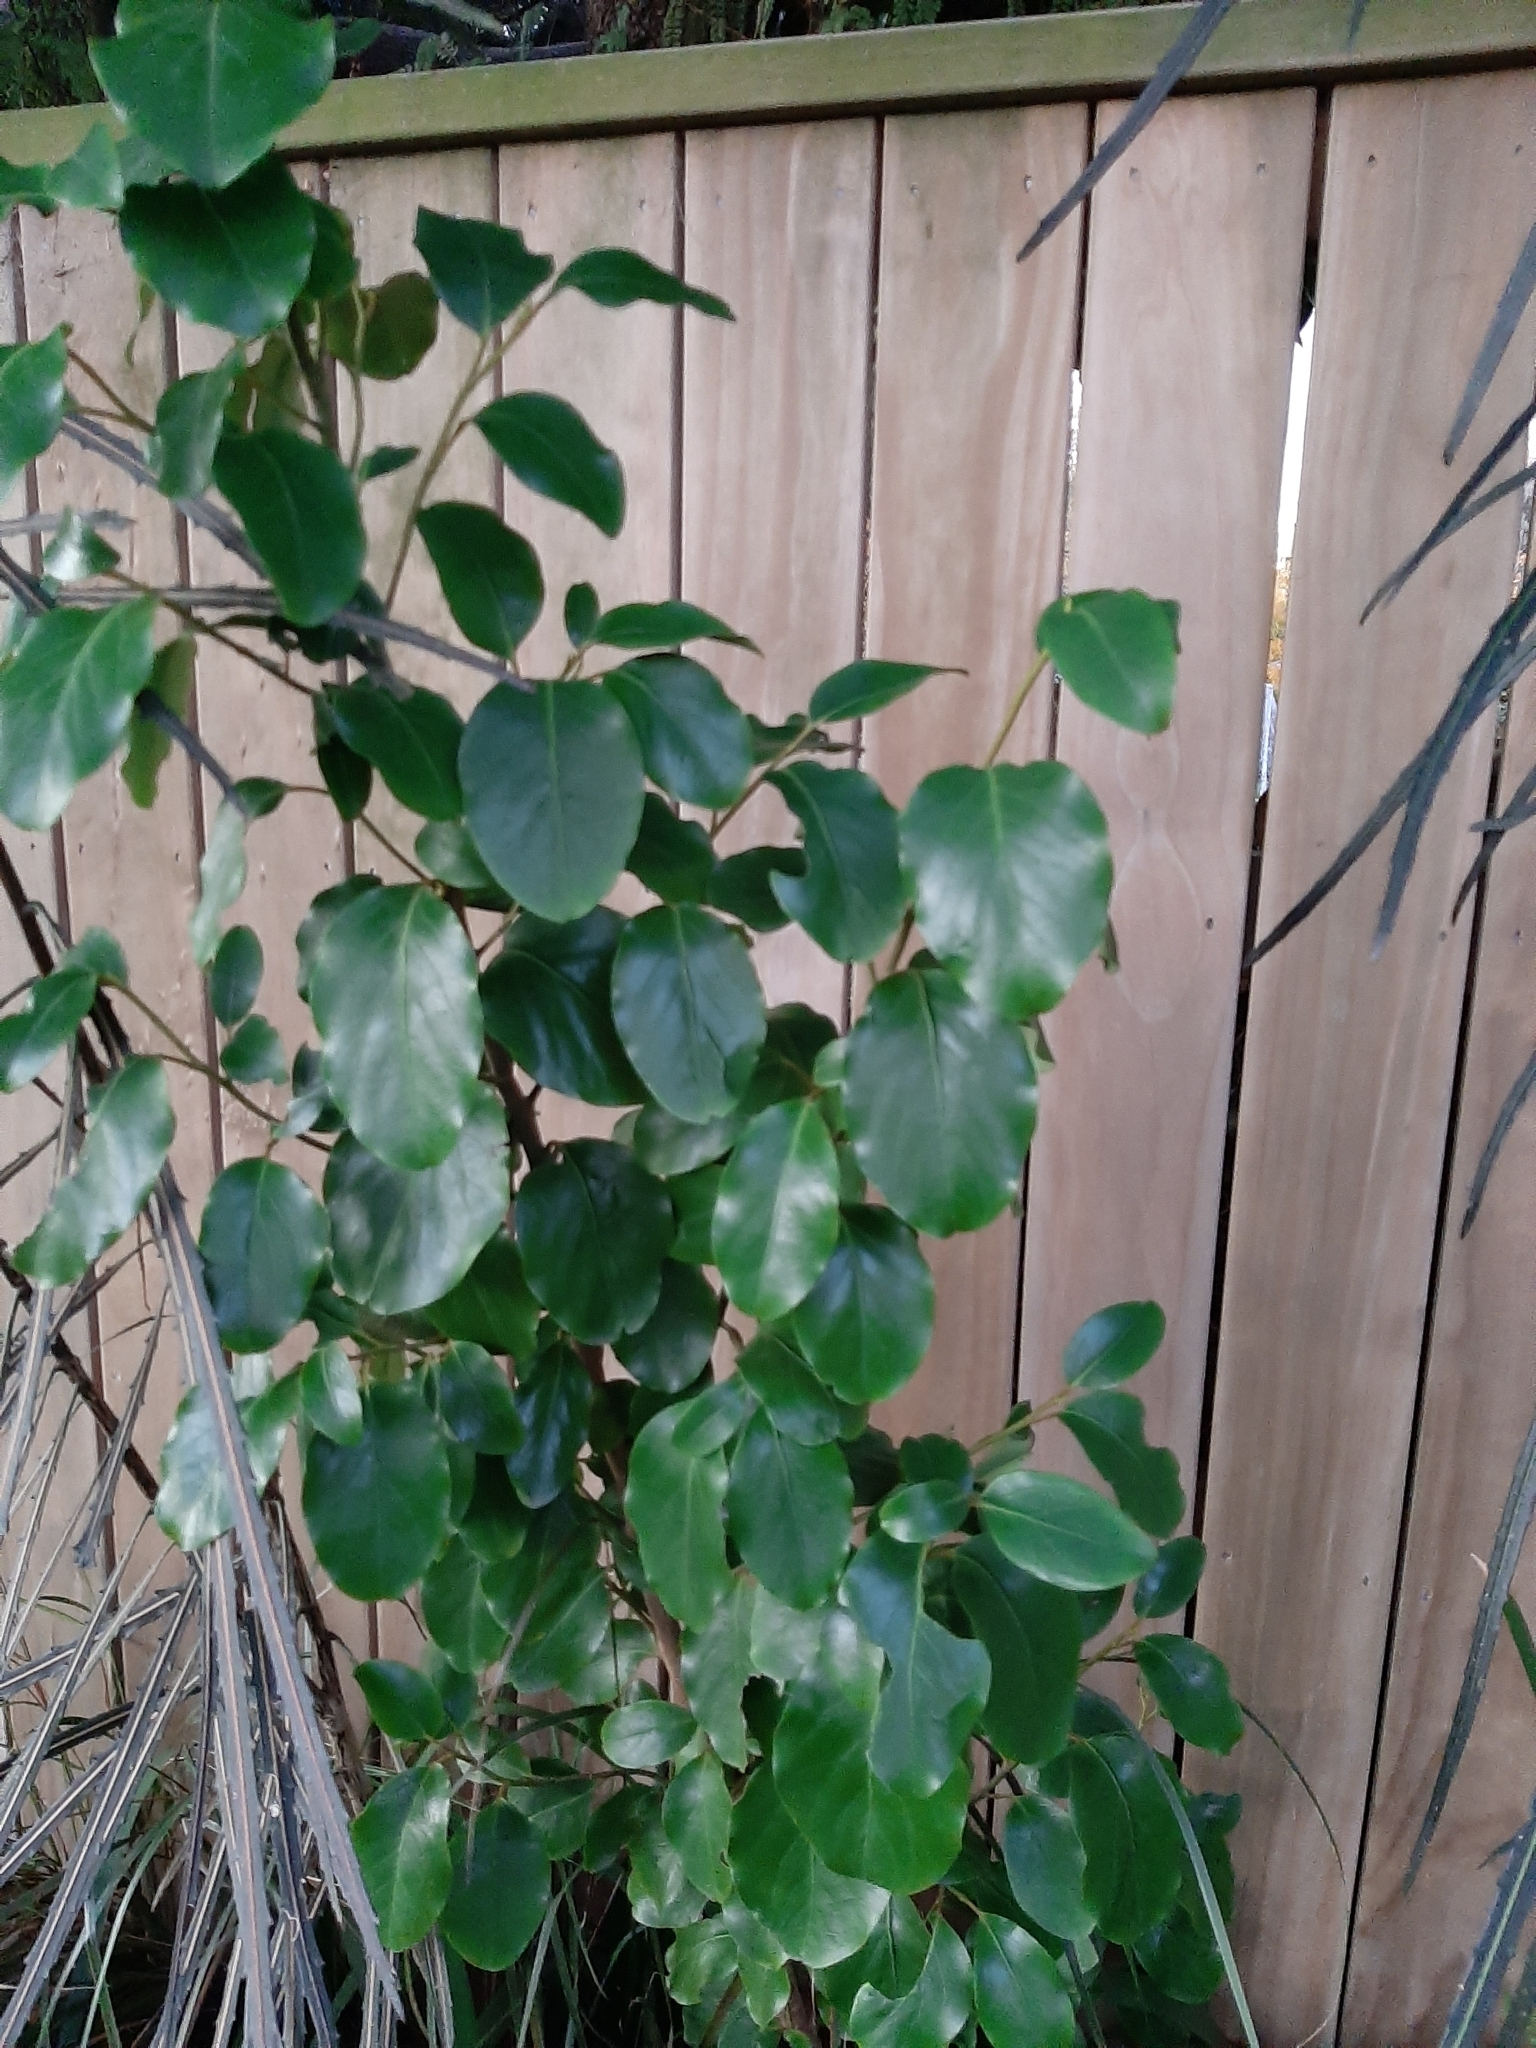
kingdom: Plantae
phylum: Tracheophyta
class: Magnoliopsida
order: Apiales
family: Griseliniaceae
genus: Griselinia
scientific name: Griselinia littoralis
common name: New zealand broadleaf
